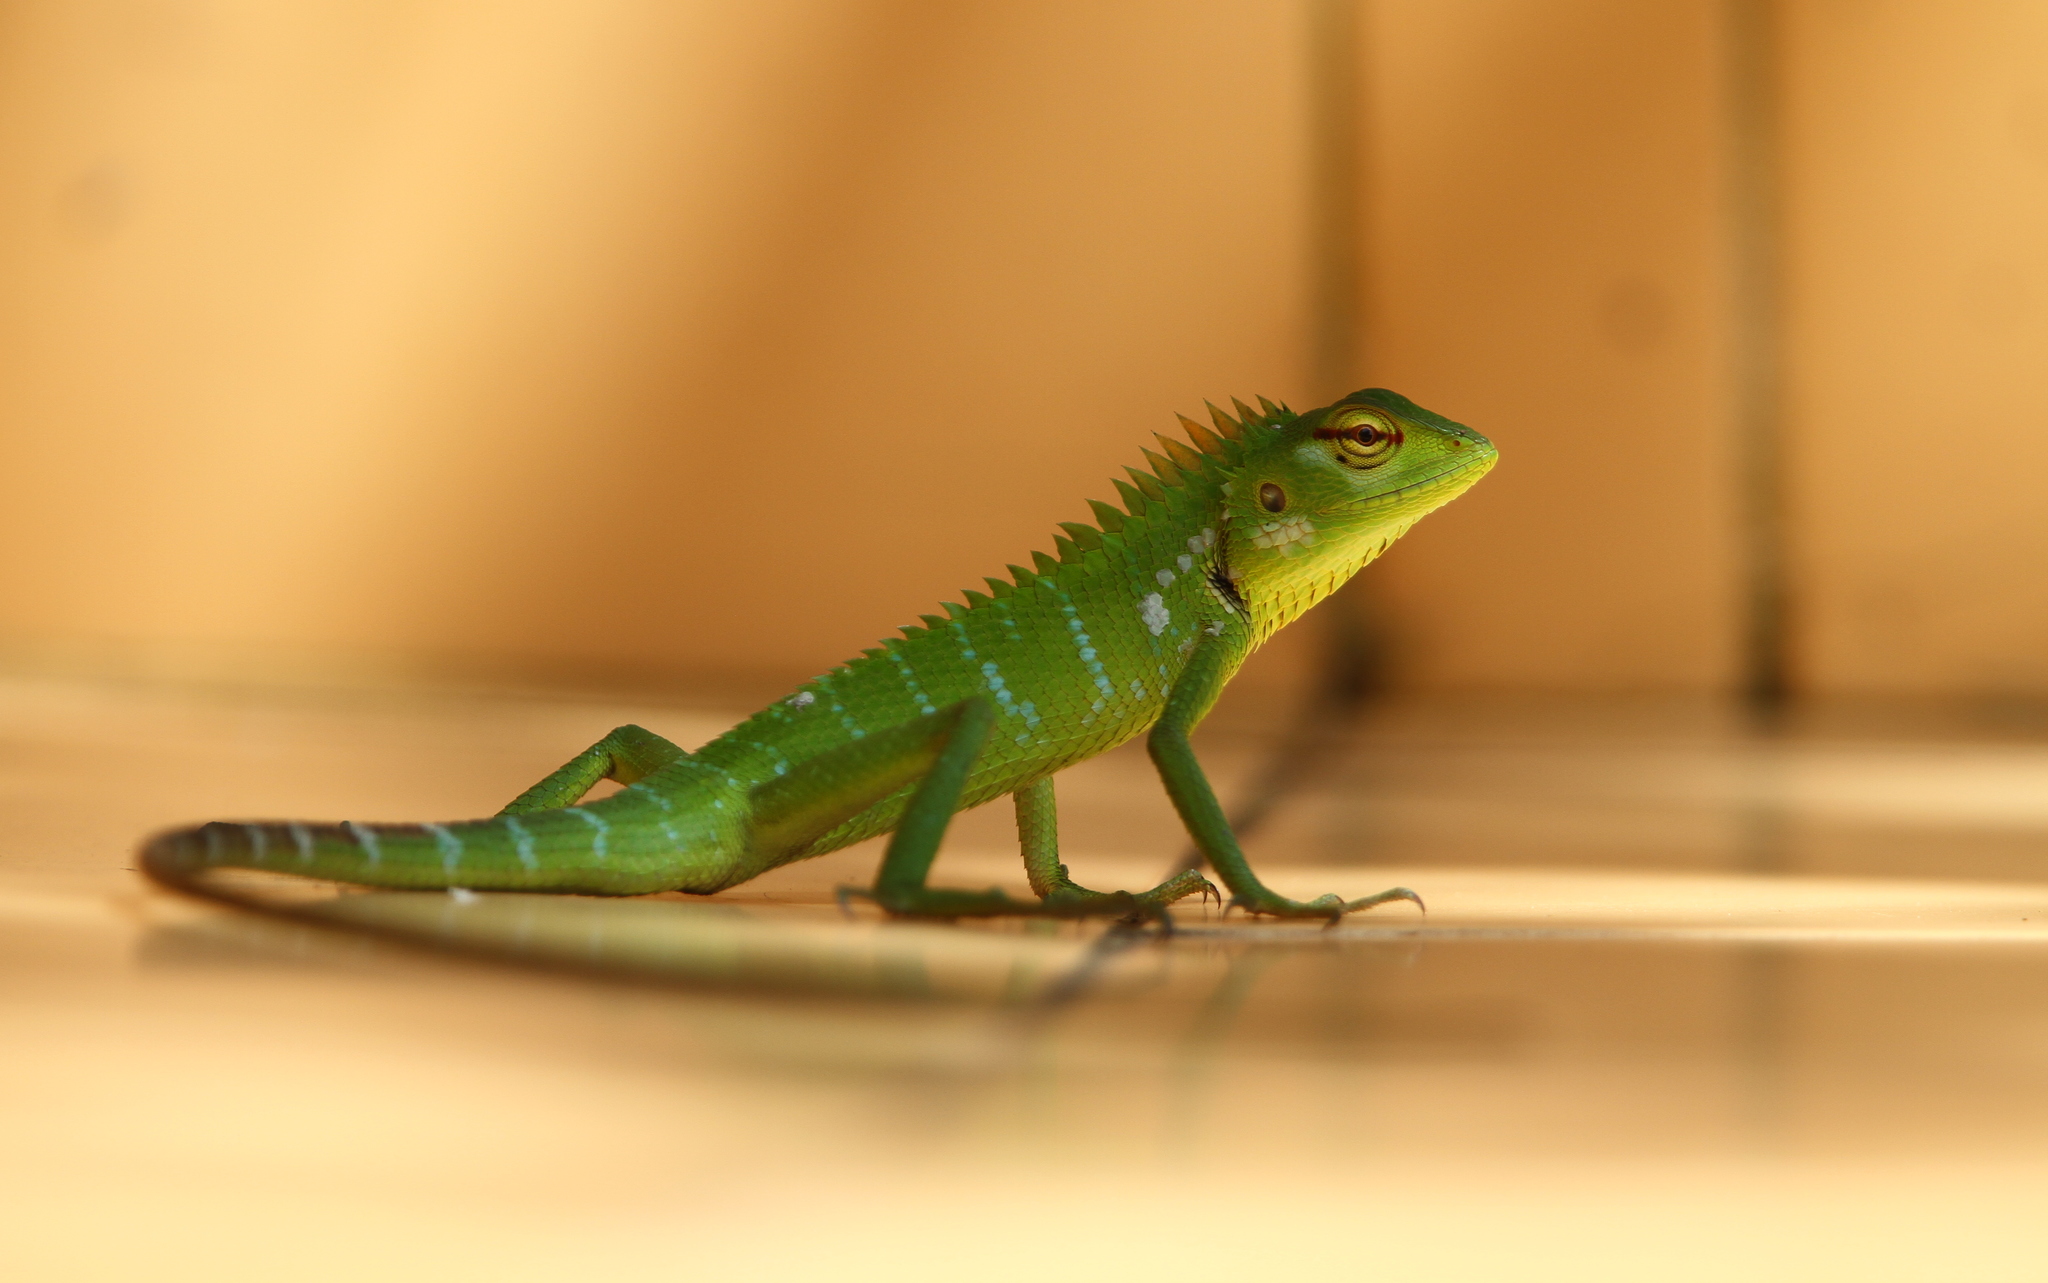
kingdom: Animalia
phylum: Chordata
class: Squamata
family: Agamidae
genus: Calotes
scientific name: Calotes calotes
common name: Common green forest lizard
